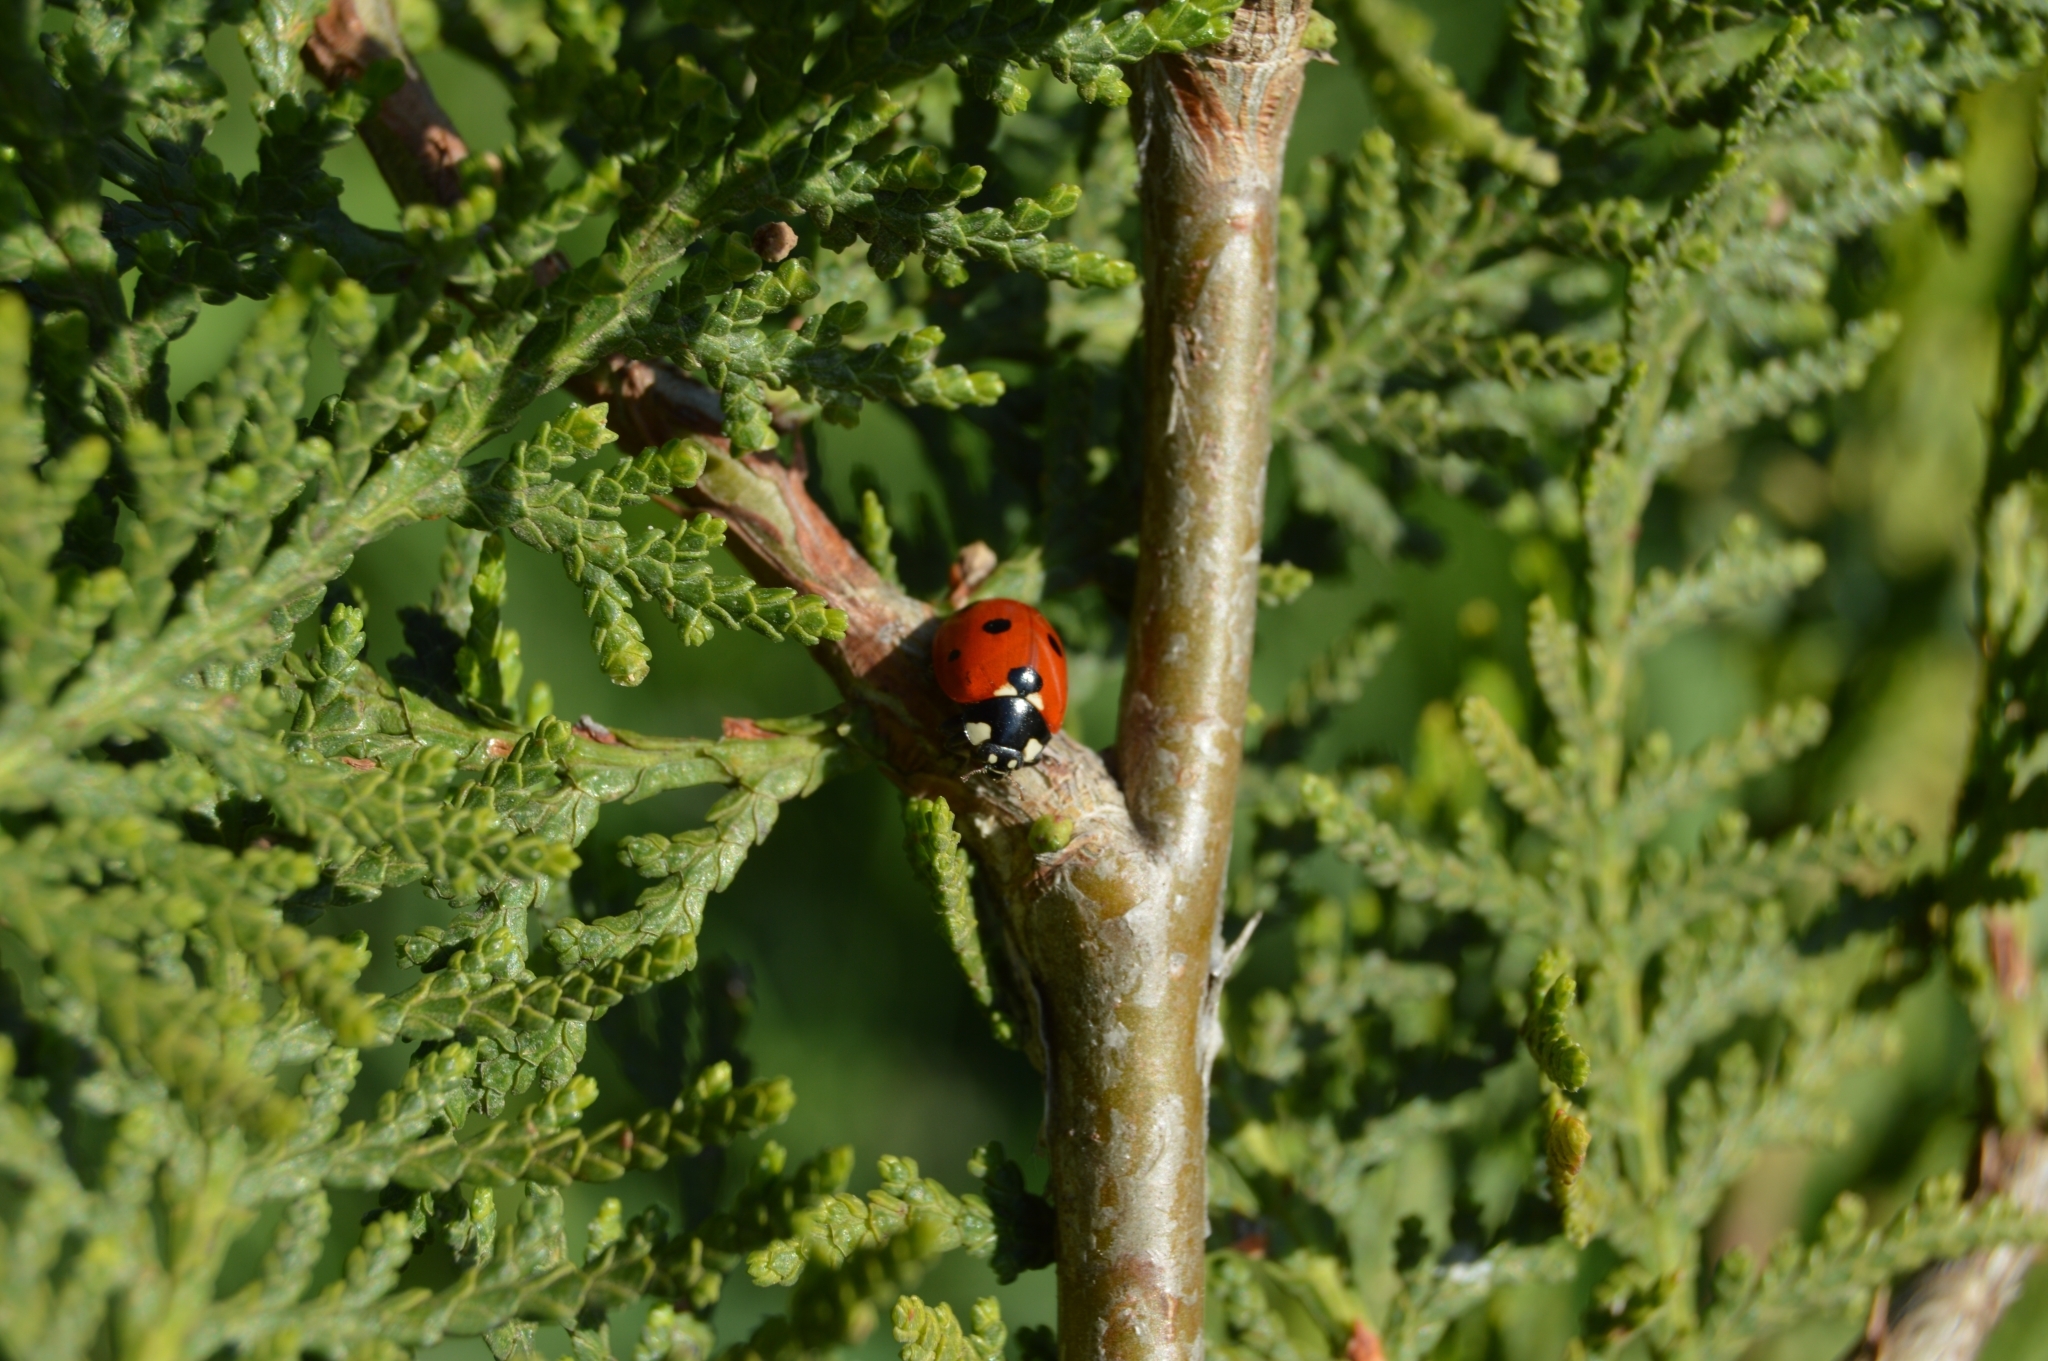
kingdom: Animalia
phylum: Arthropoda
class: Insecta
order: Coleoptera
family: Coccinellidae
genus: Coccinella
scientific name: Coccinella septempunctata
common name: Sevenspotted lady beetle
